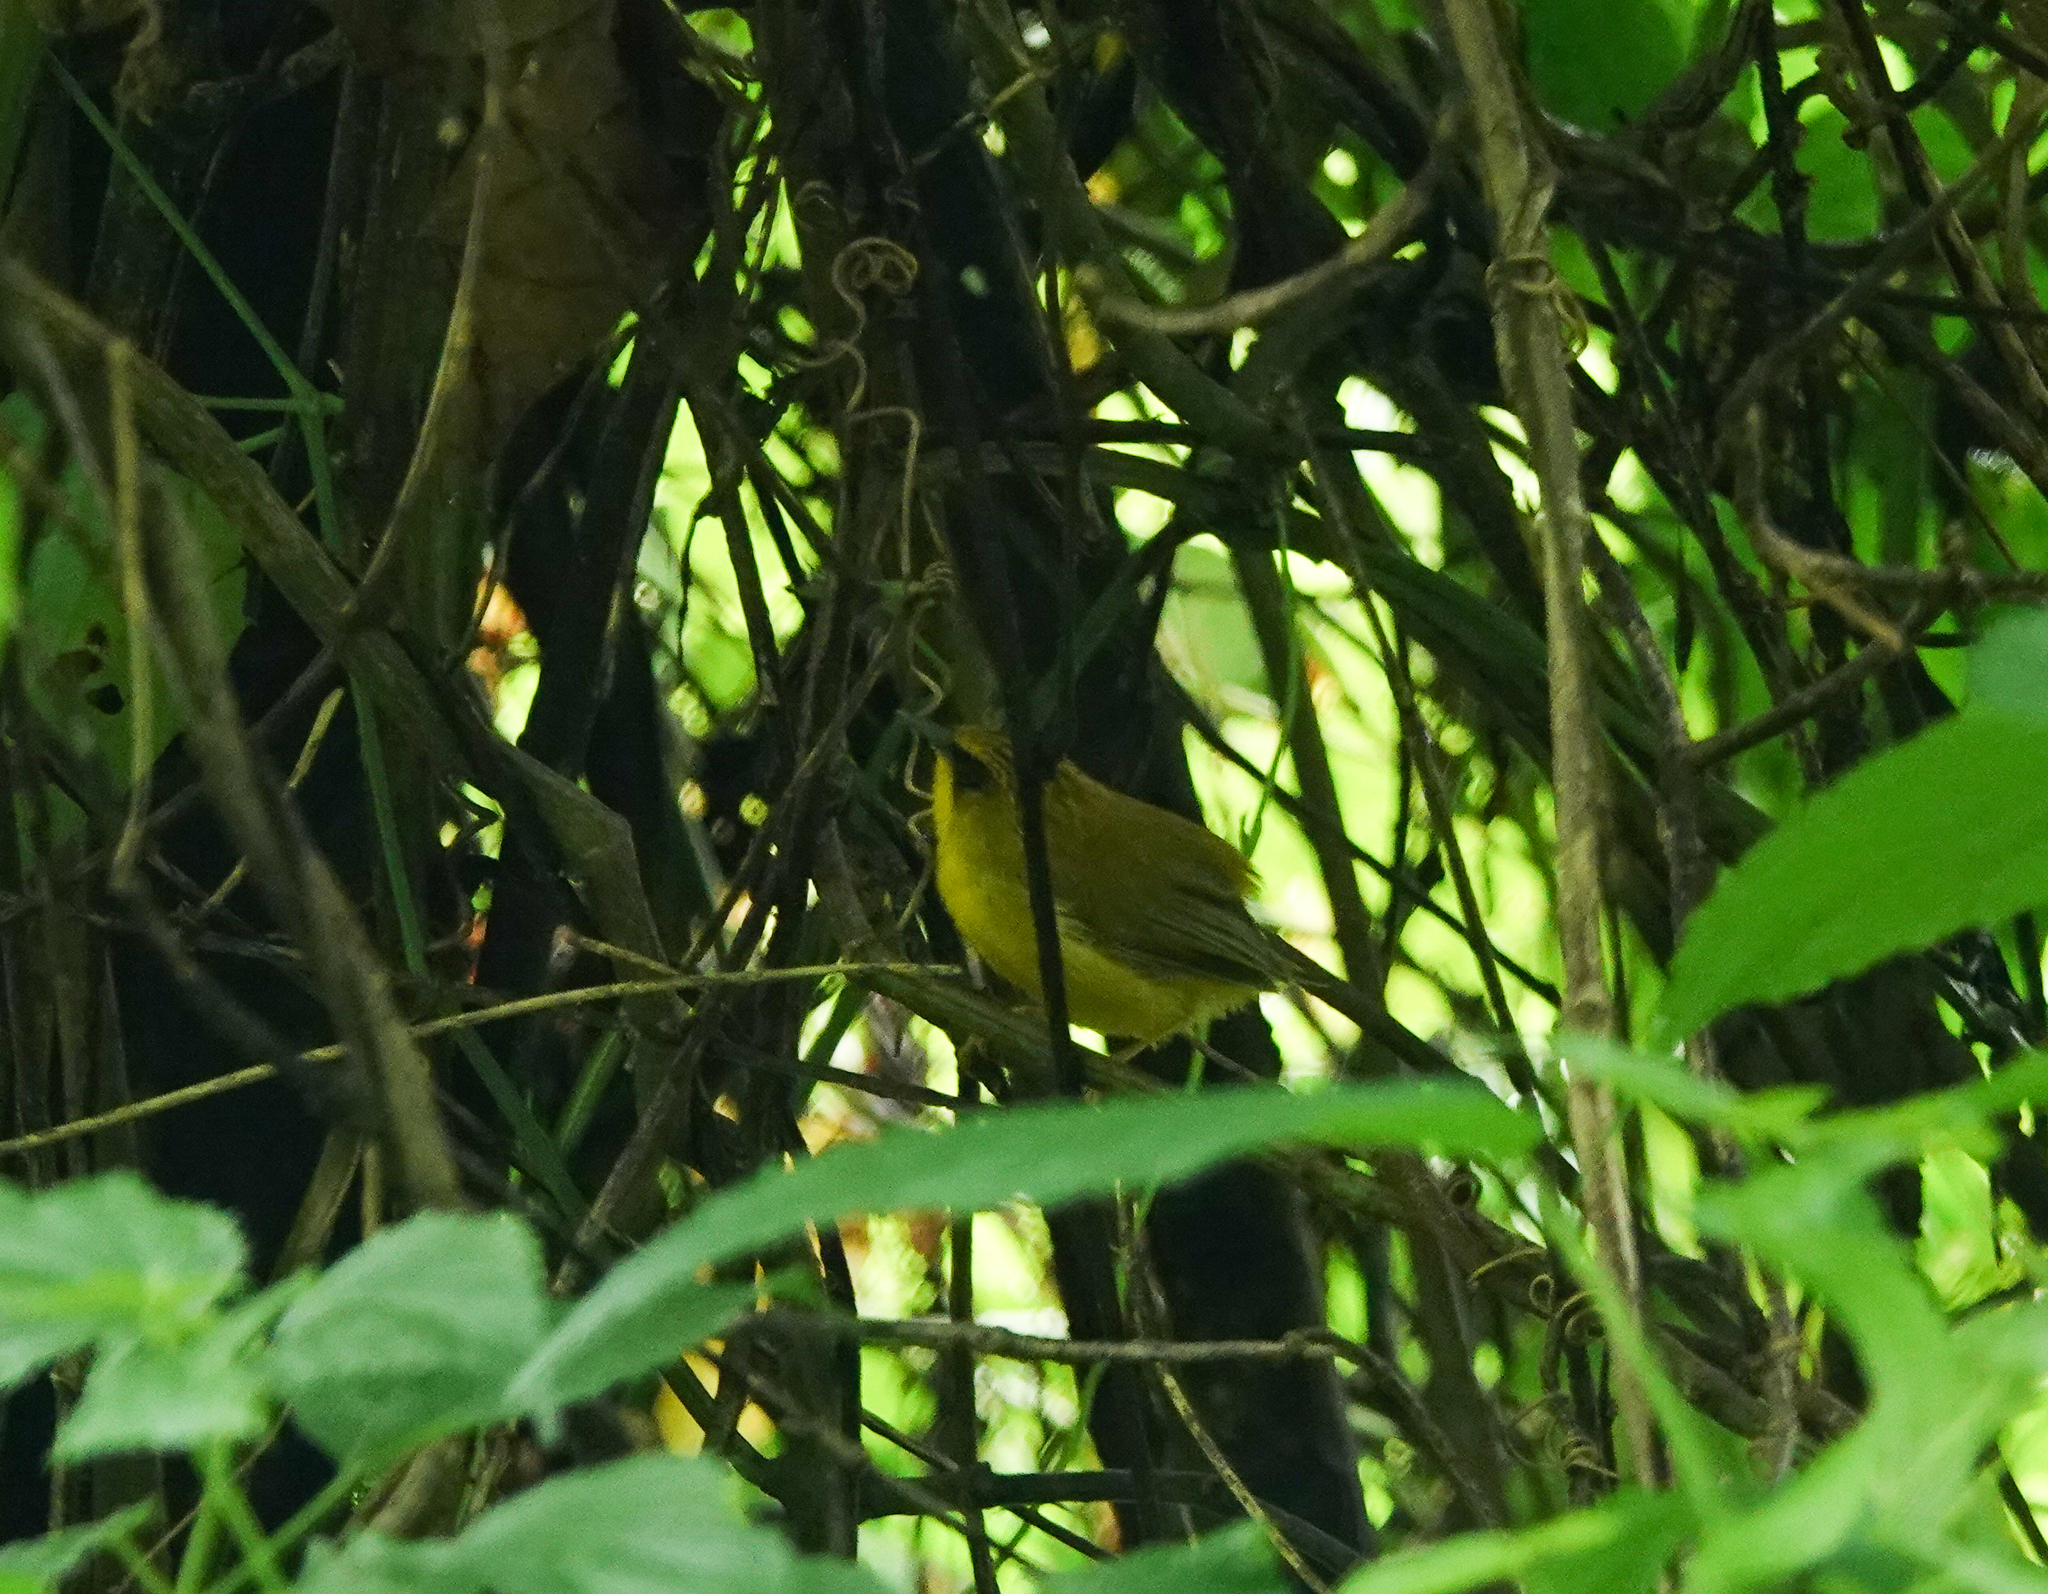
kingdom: Animalia
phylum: Chordata
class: Aves
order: Passeriformes
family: Timaliidae
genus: Stachyridopsis
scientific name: Stachyridopsis chrysaea
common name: Golden babbler
